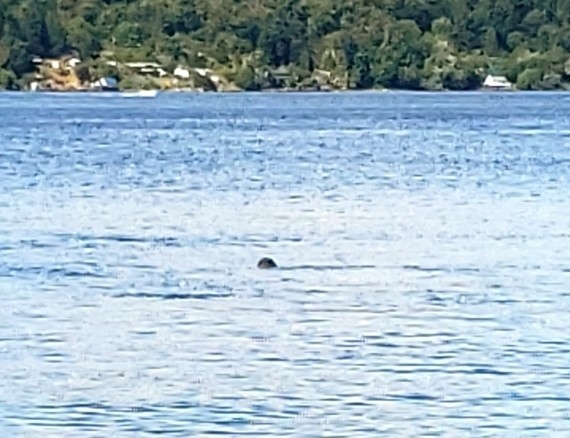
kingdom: Animalia
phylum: Chordata
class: Mammalia
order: Carnivora
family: Phocidae
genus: Phoca
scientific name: Phoca vitulina
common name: Harbor seal
